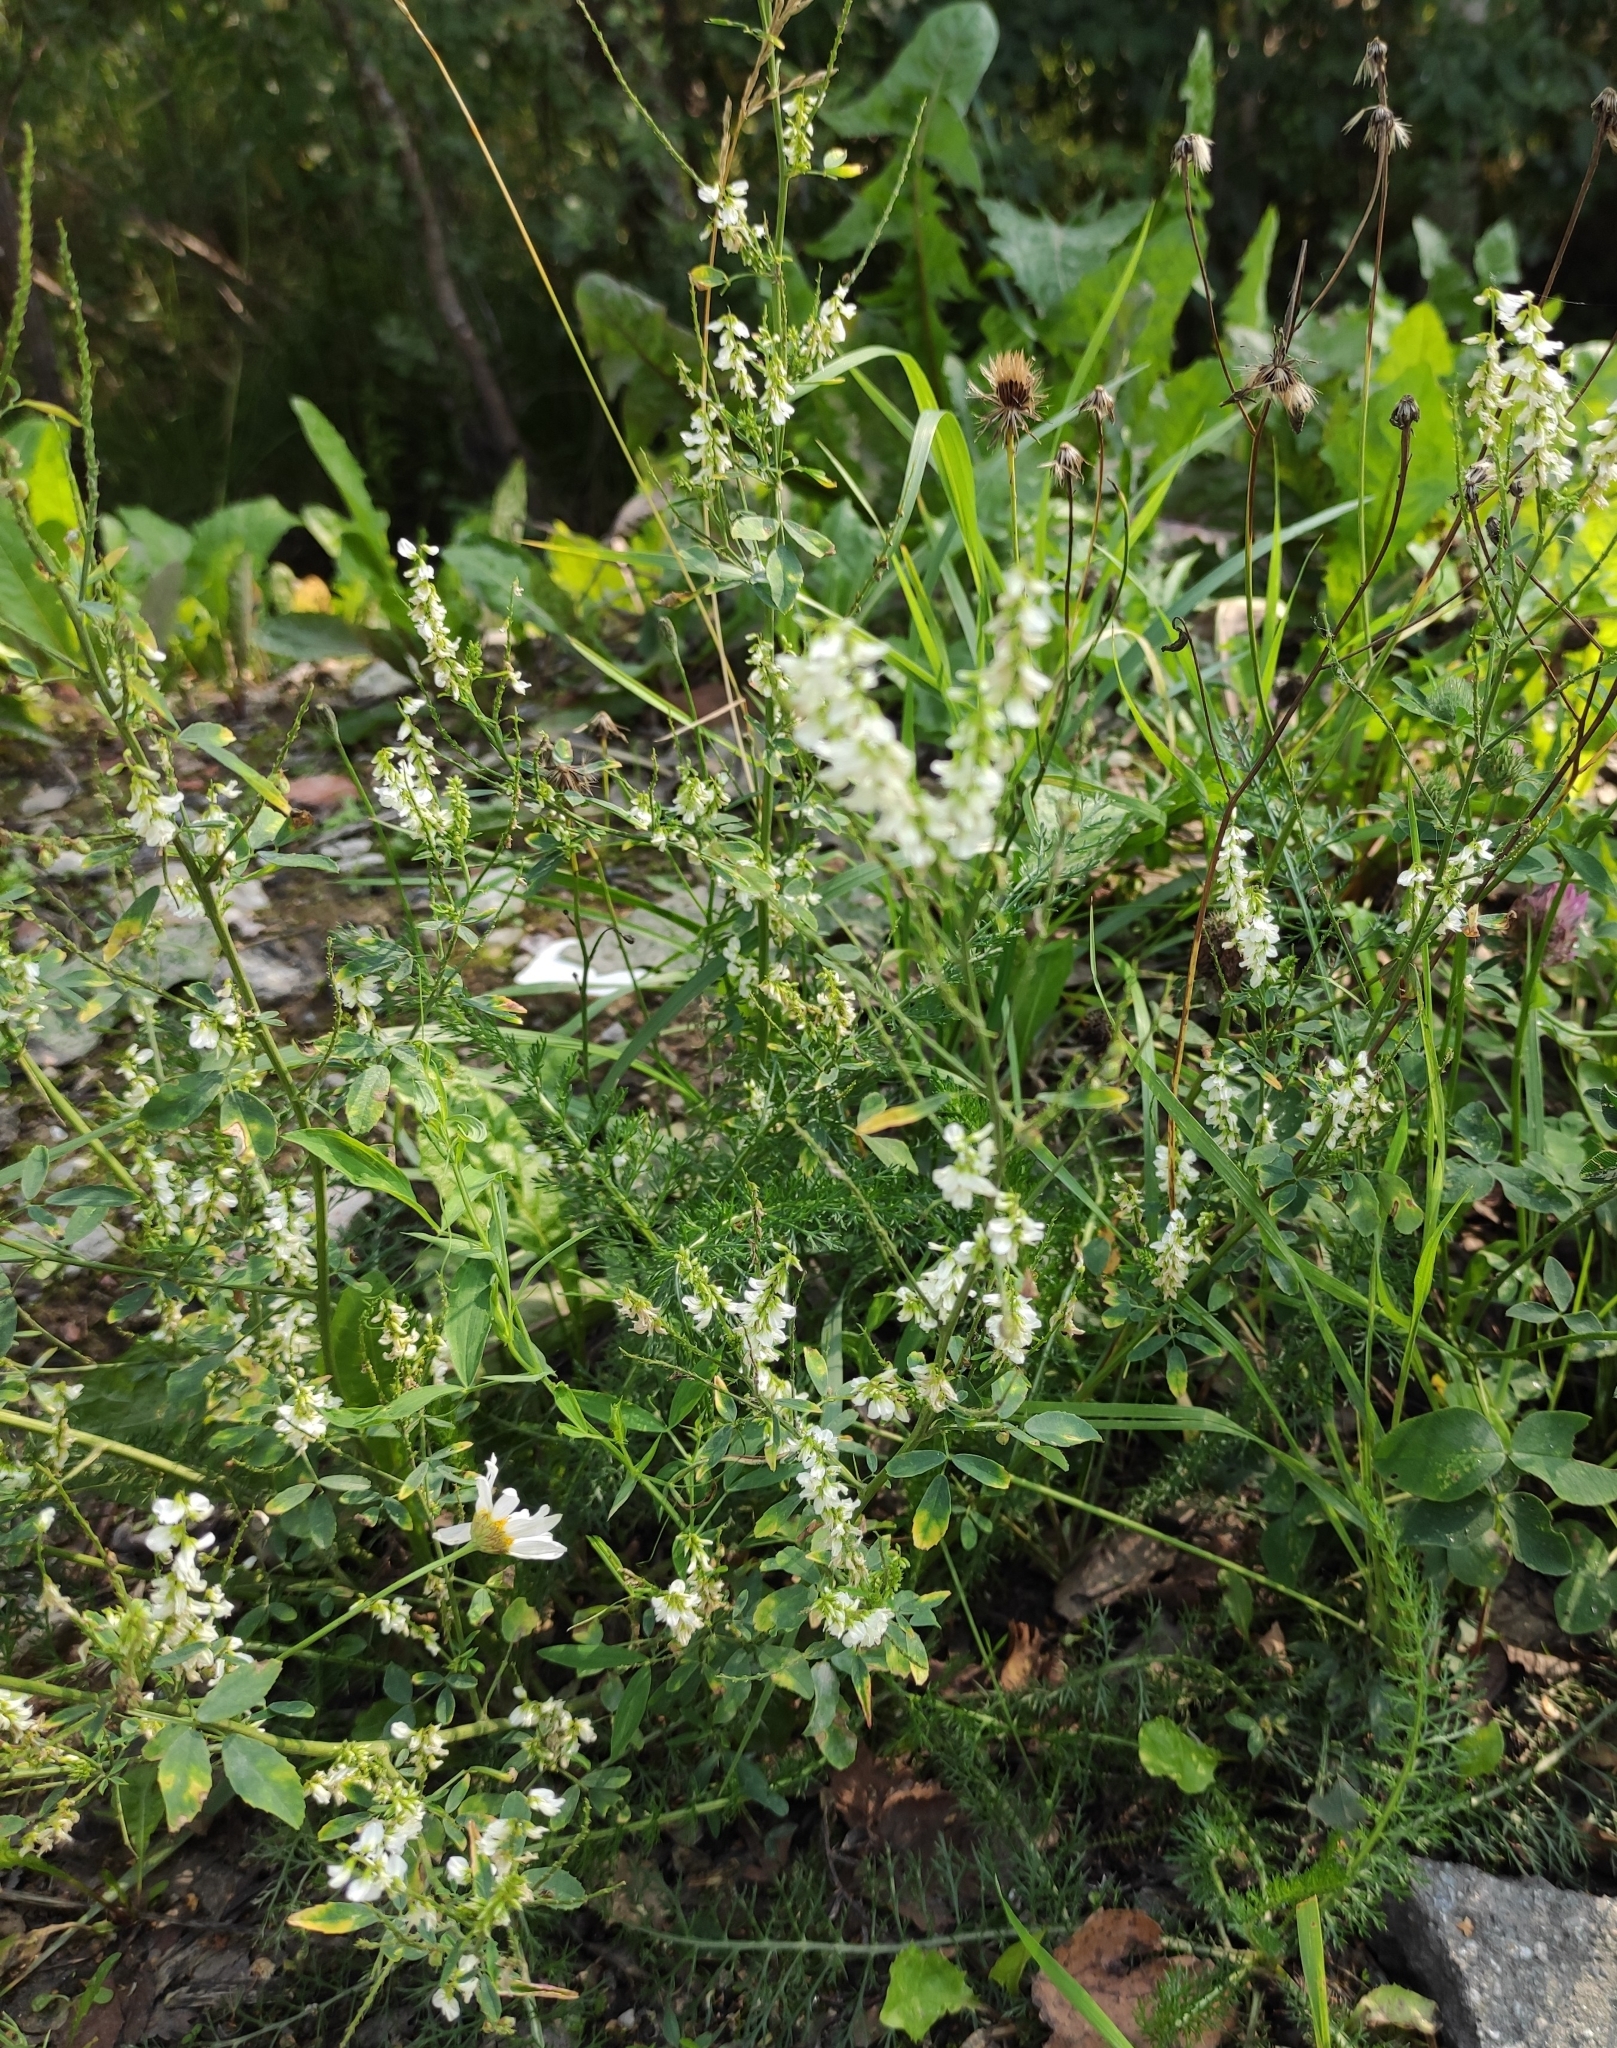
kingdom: Plantae
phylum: Tracheophyta
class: Magnoliopsida
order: Fabales
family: Fabaceae
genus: Melilotus
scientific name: Melilotus albus
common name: White melilot
